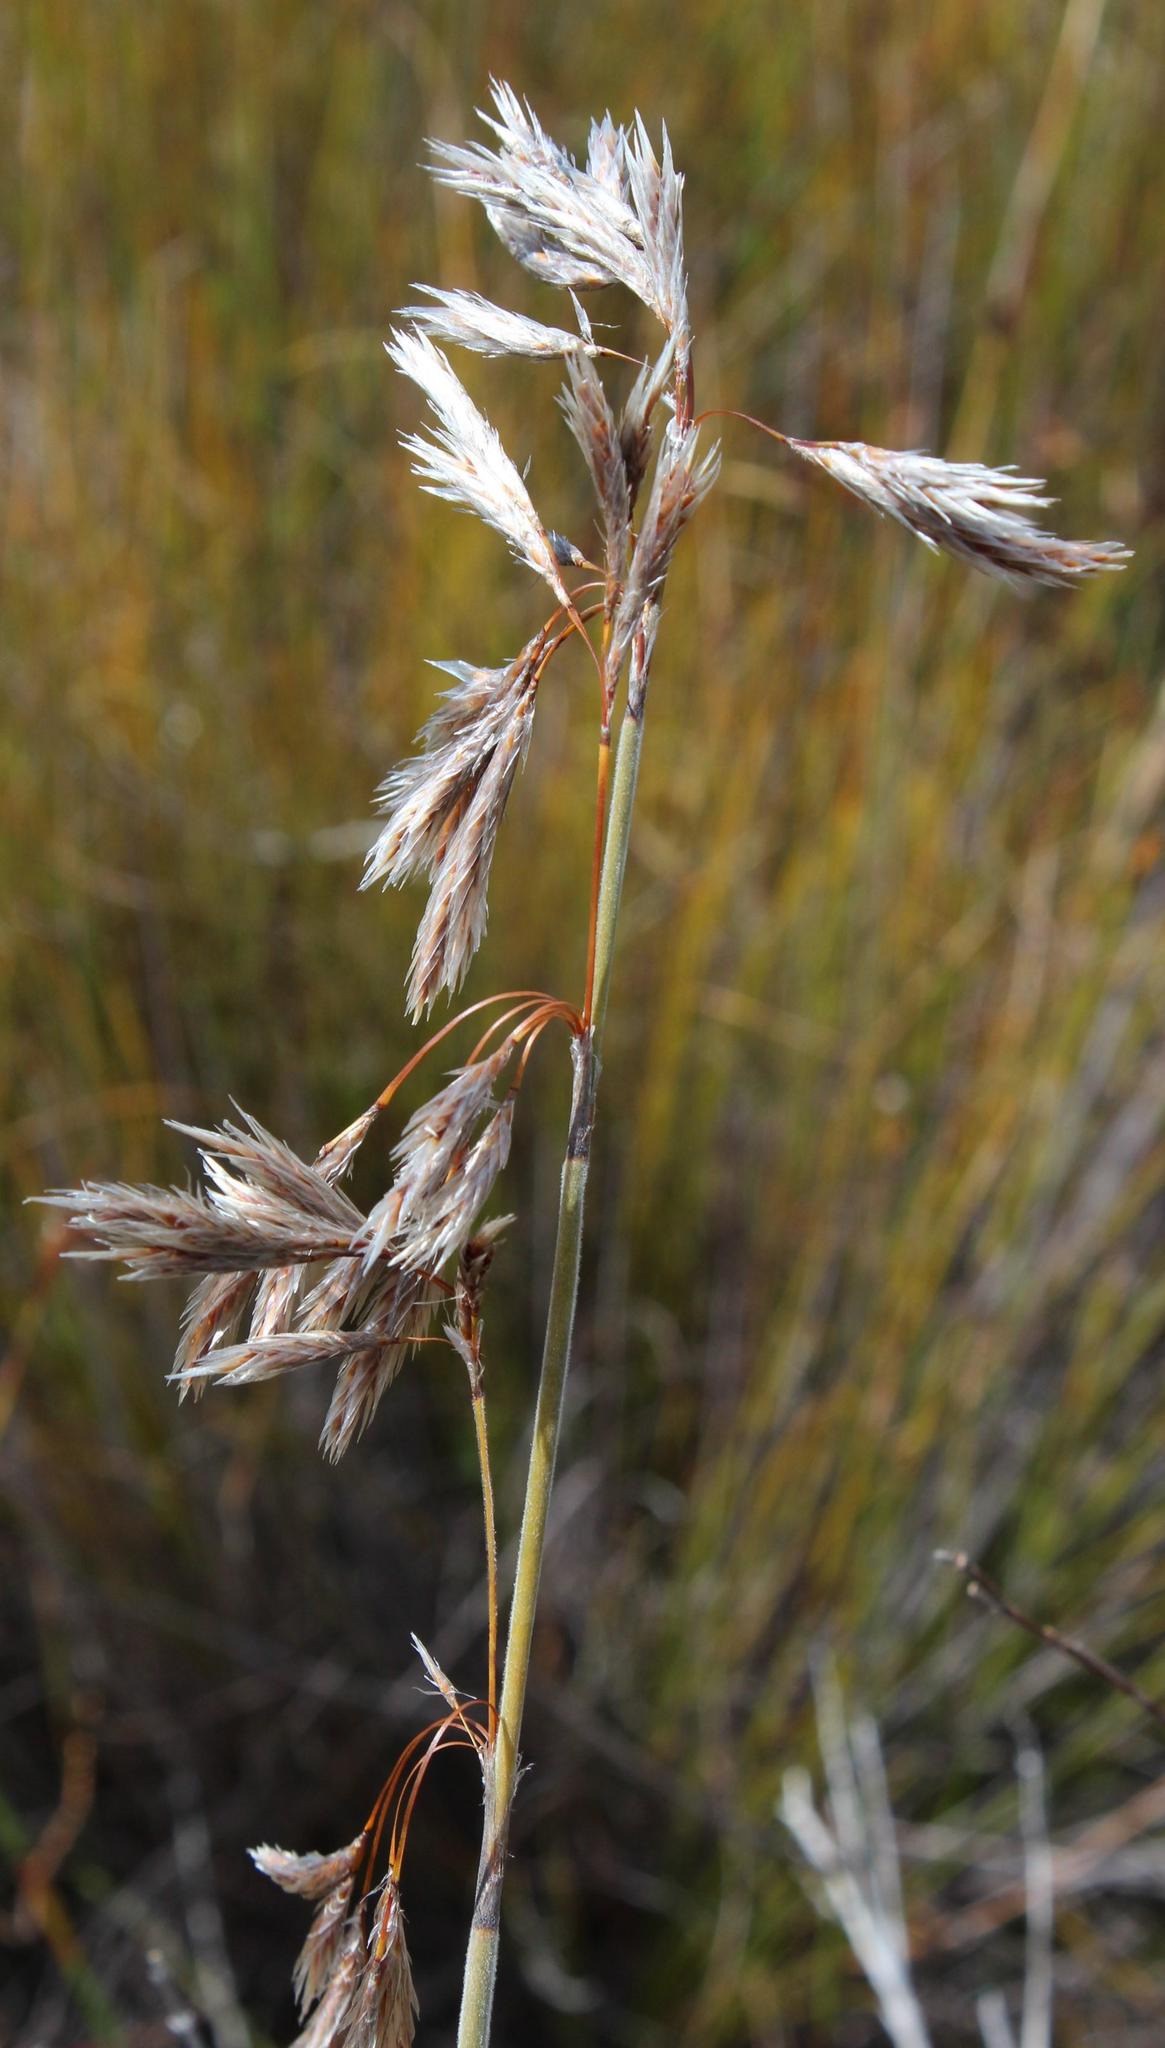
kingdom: Plantae
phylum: Tracheophyta
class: Liliopsida
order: Poales
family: Restionaceae
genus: Thamnochortus
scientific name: Thamnochortus cinereus
